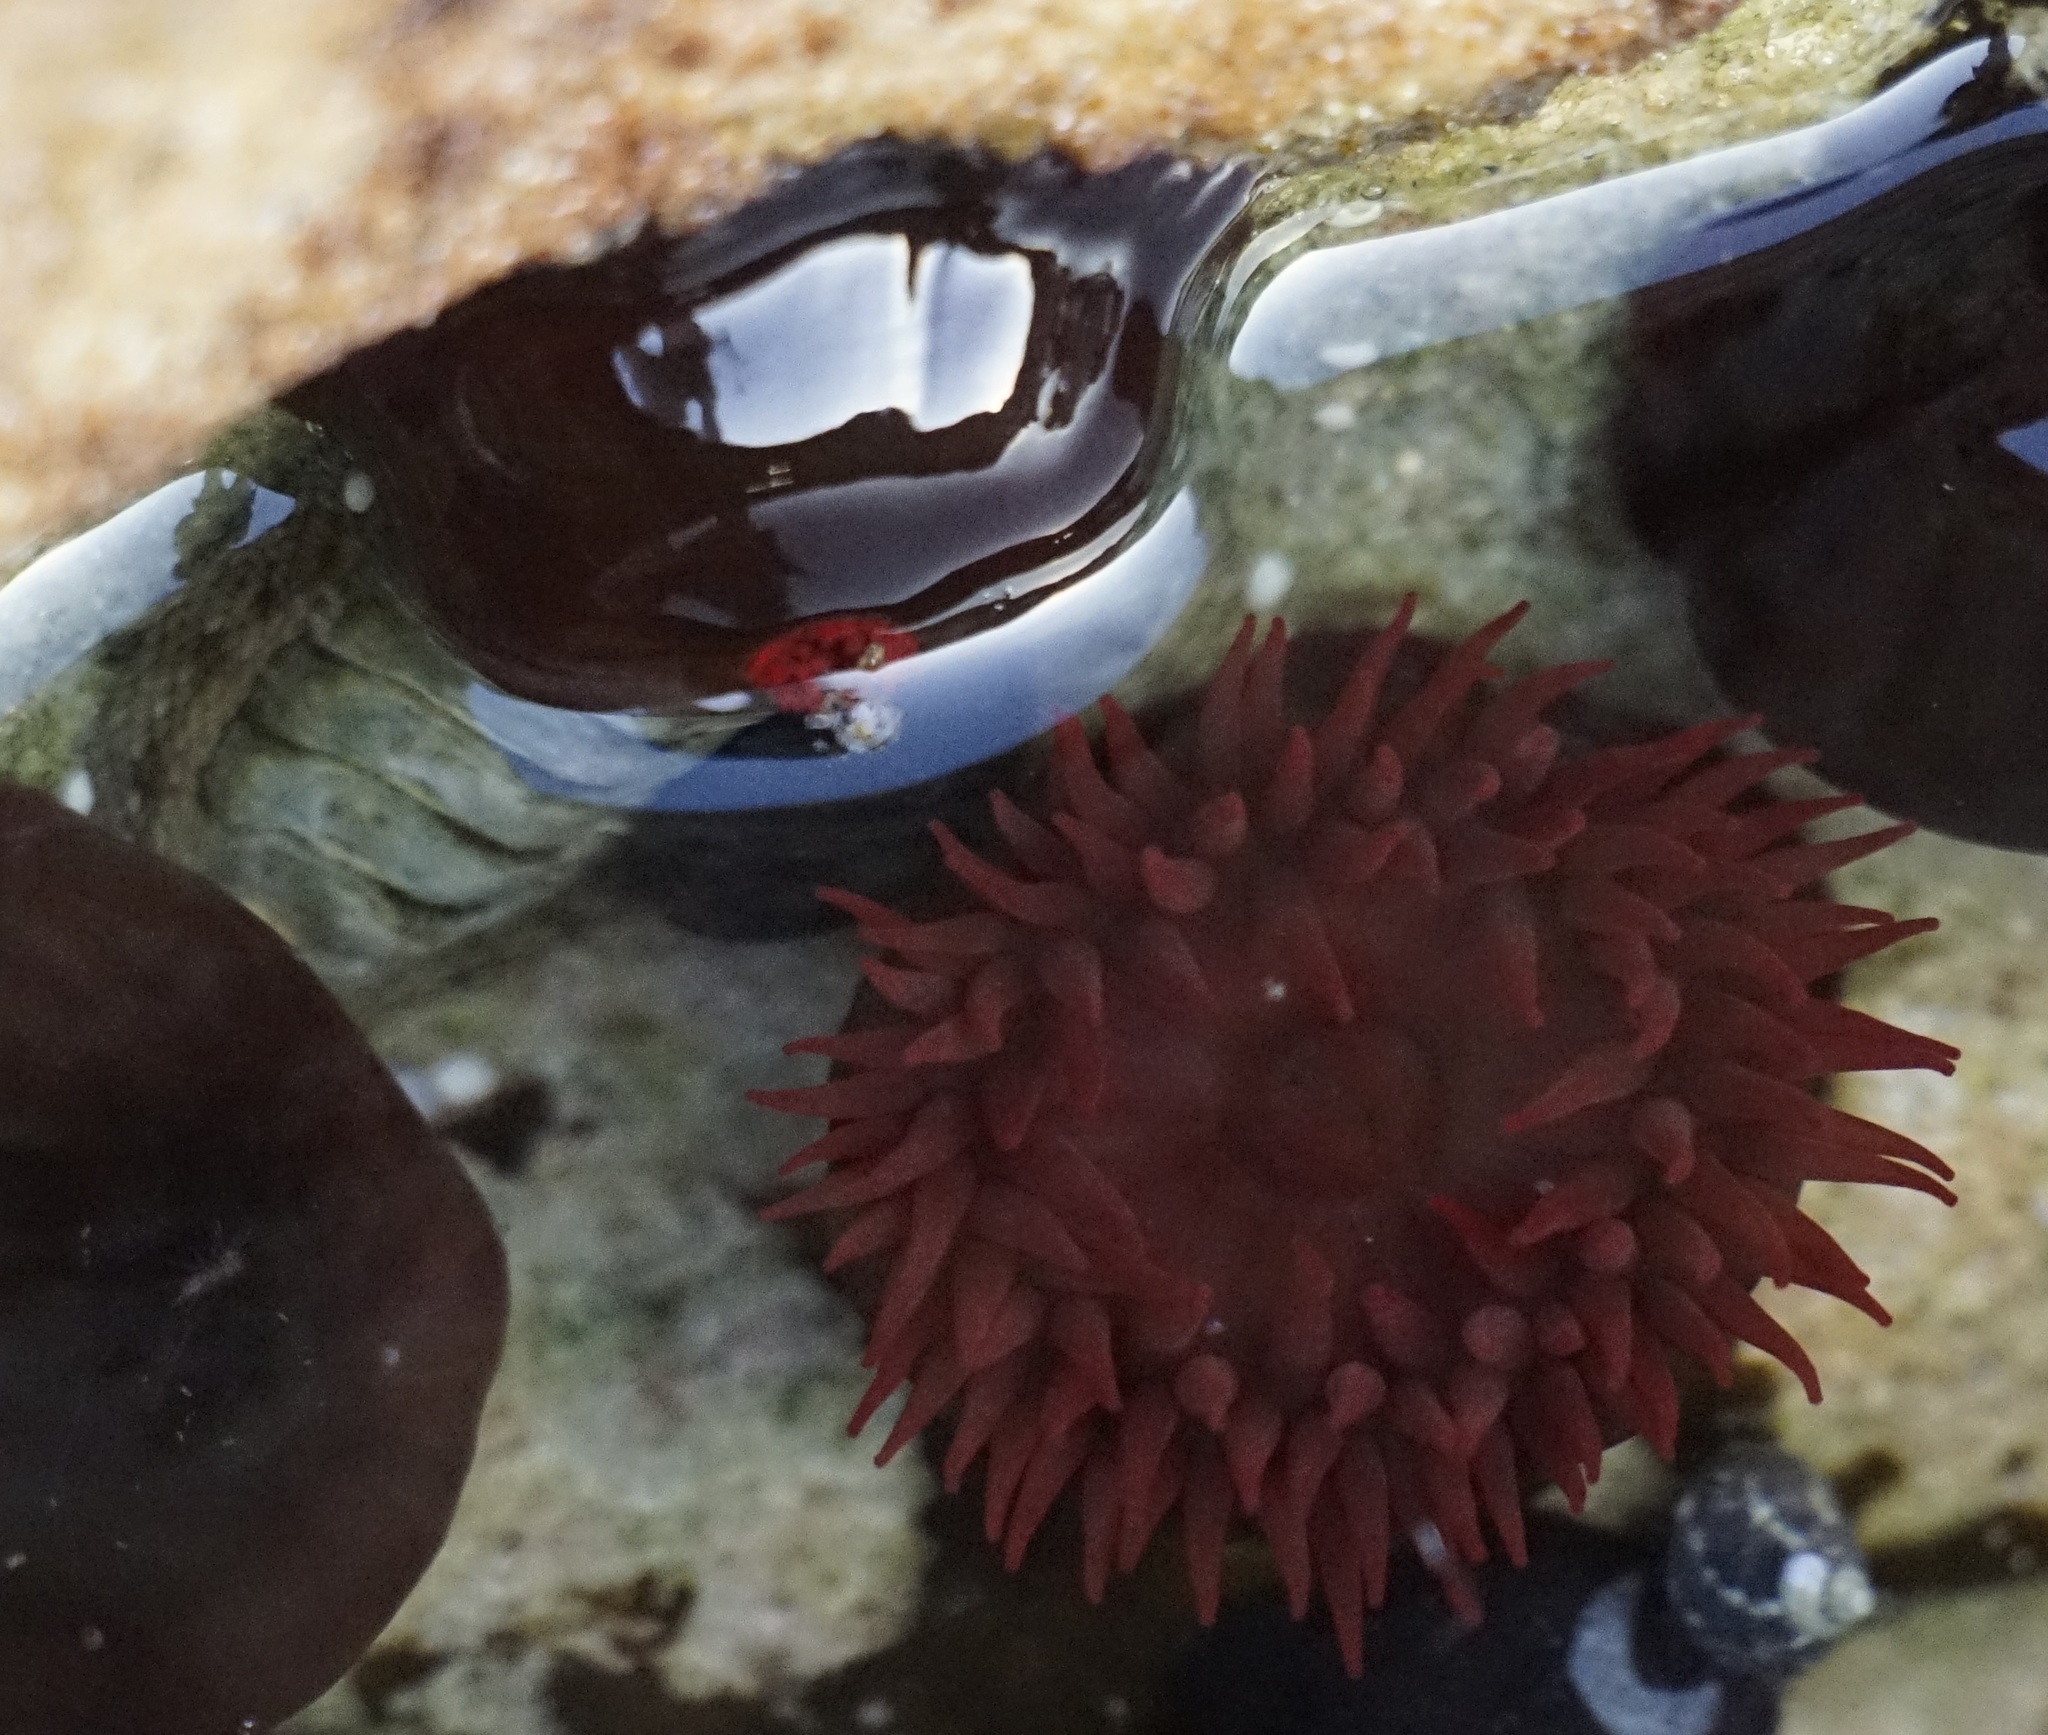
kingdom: Animalia
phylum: Cnidaria
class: Anthozoa
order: Actiniaria
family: Actiniidae
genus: Actinia
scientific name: Actinia tenebrosa
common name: Waratah anemone
